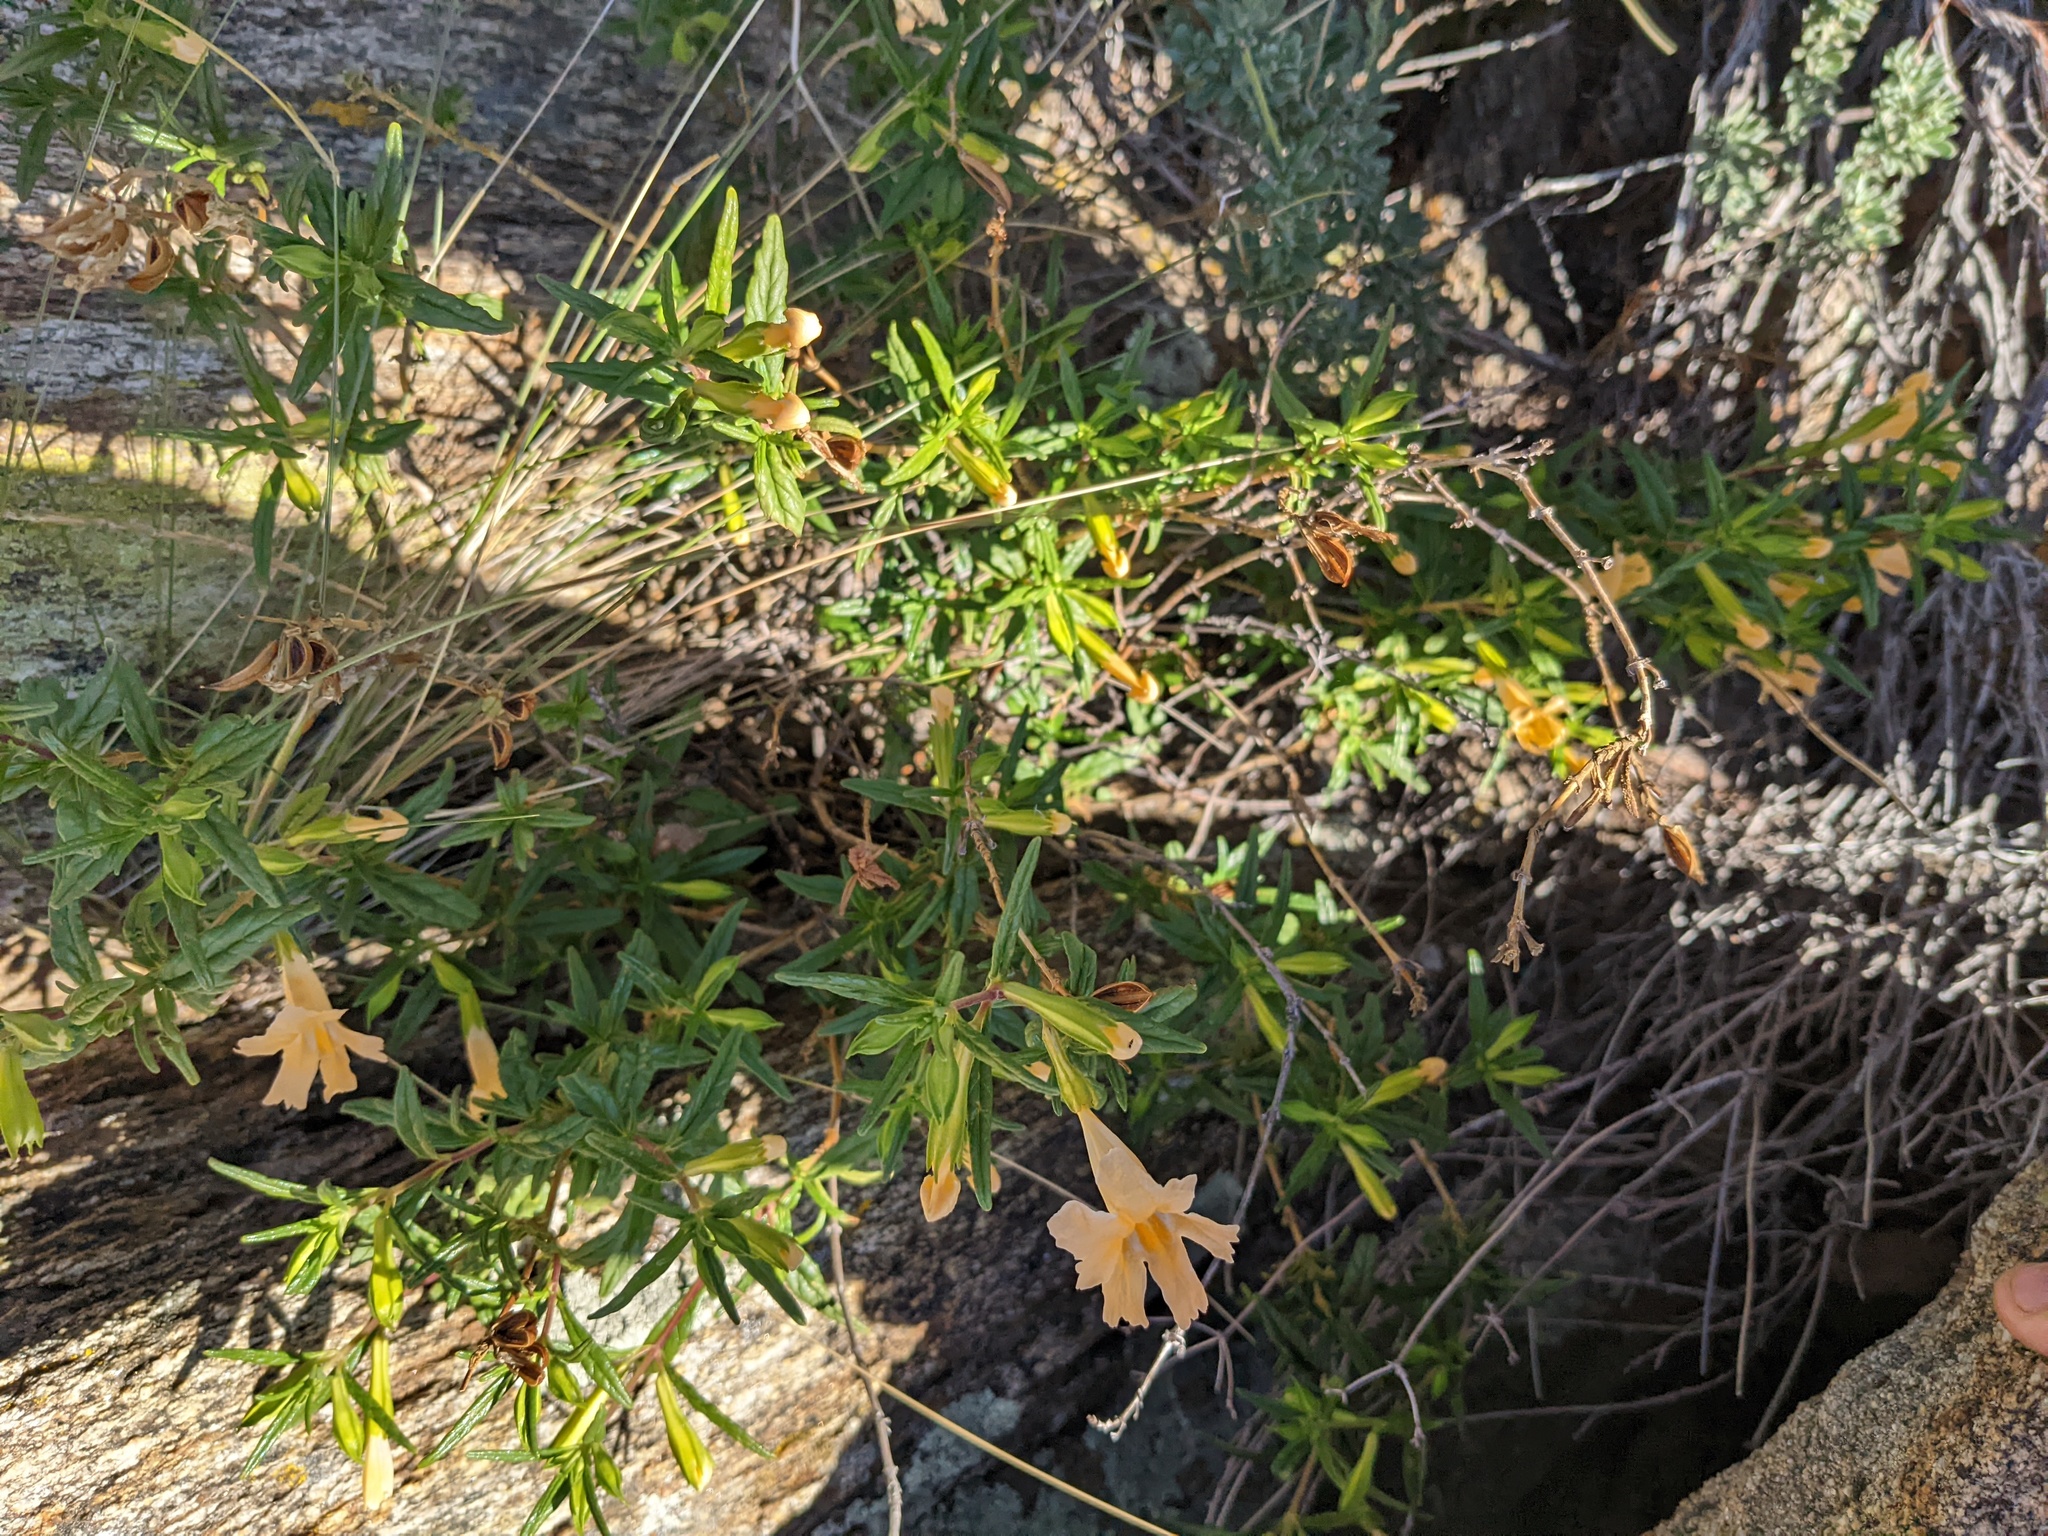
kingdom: Plantae
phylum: Tracheophyta
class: Magnoliopsida
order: Lamiales
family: Phrymaceae
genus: Diplacus
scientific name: Diplacus australis
